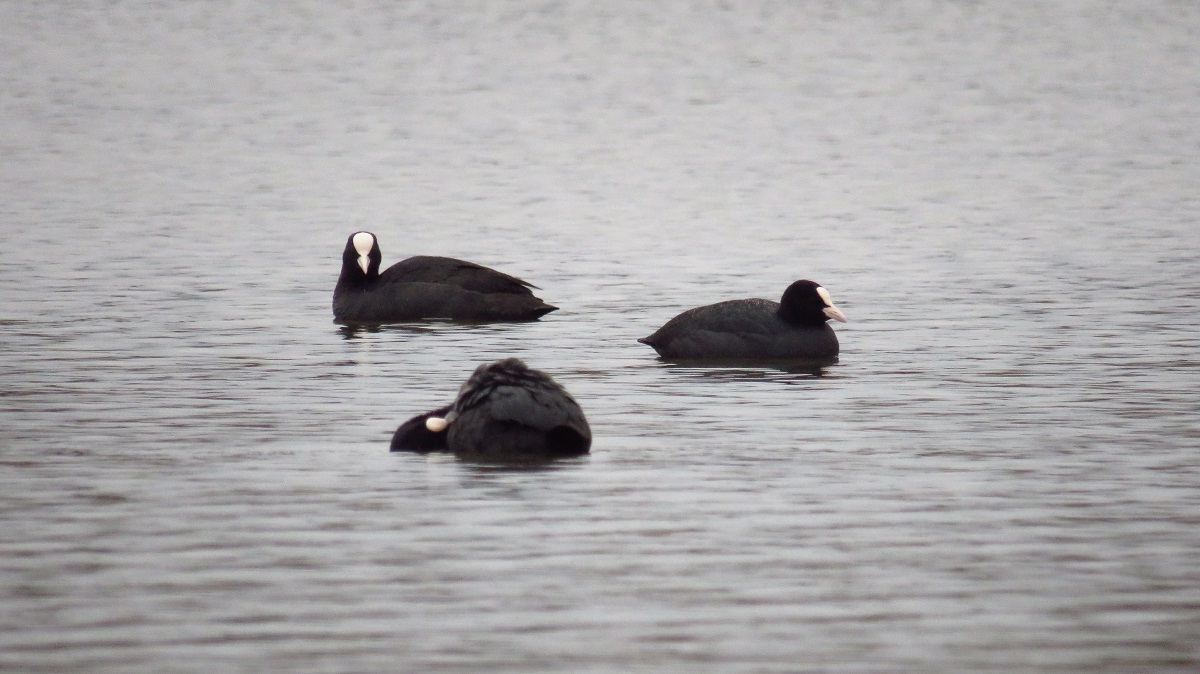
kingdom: Animalia
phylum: Chordata
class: Aves
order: Gruiformes
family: Rallidae
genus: Fulica
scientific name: Fulica atra
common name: Eurasian coot
